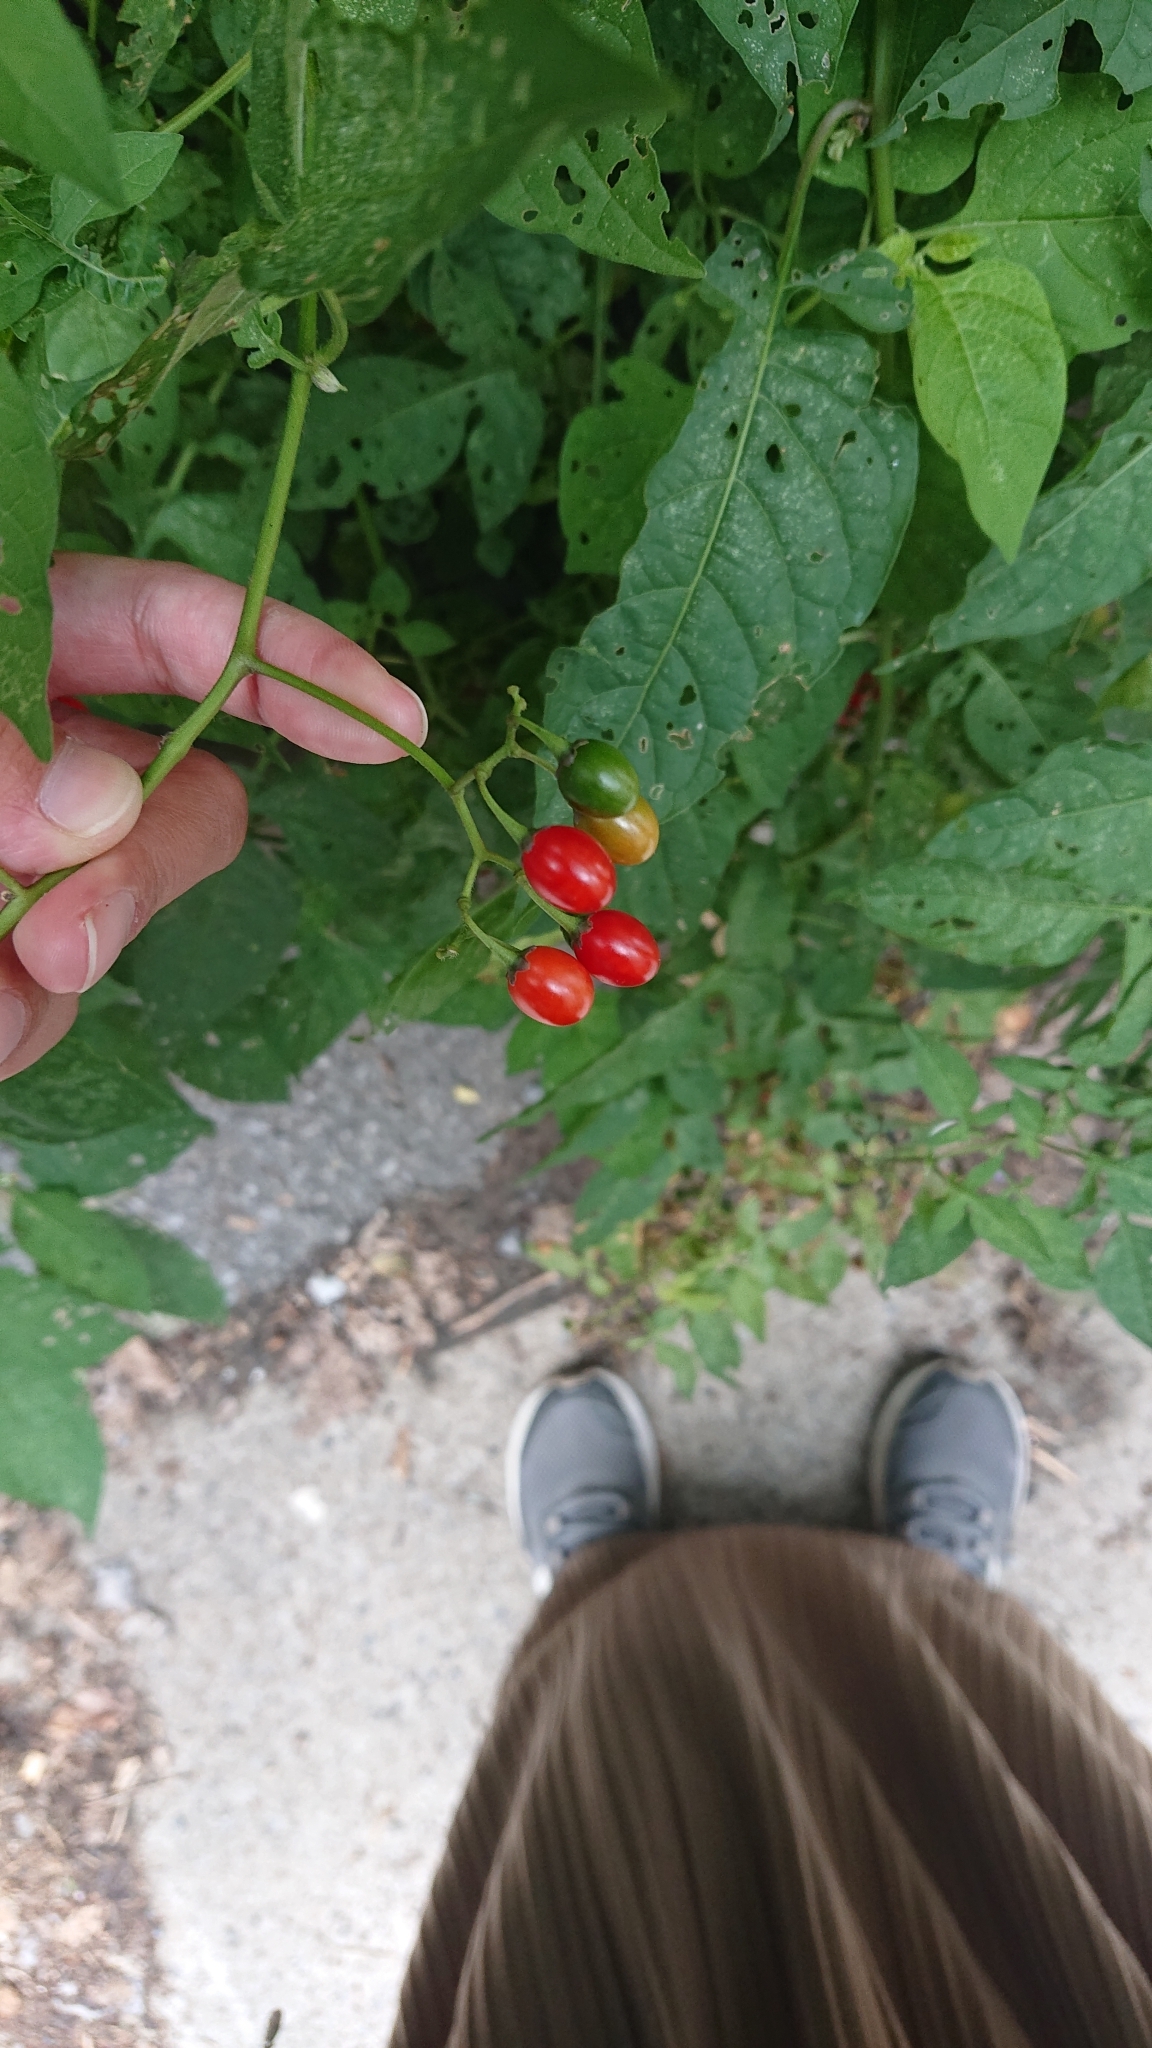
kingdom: Plantae
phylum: Tracheophyta
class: Magnoliopsida
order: Solanales
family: Solanaceae
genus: Solanum
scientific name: Solanum dulcamara
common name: Climbing nightshade
